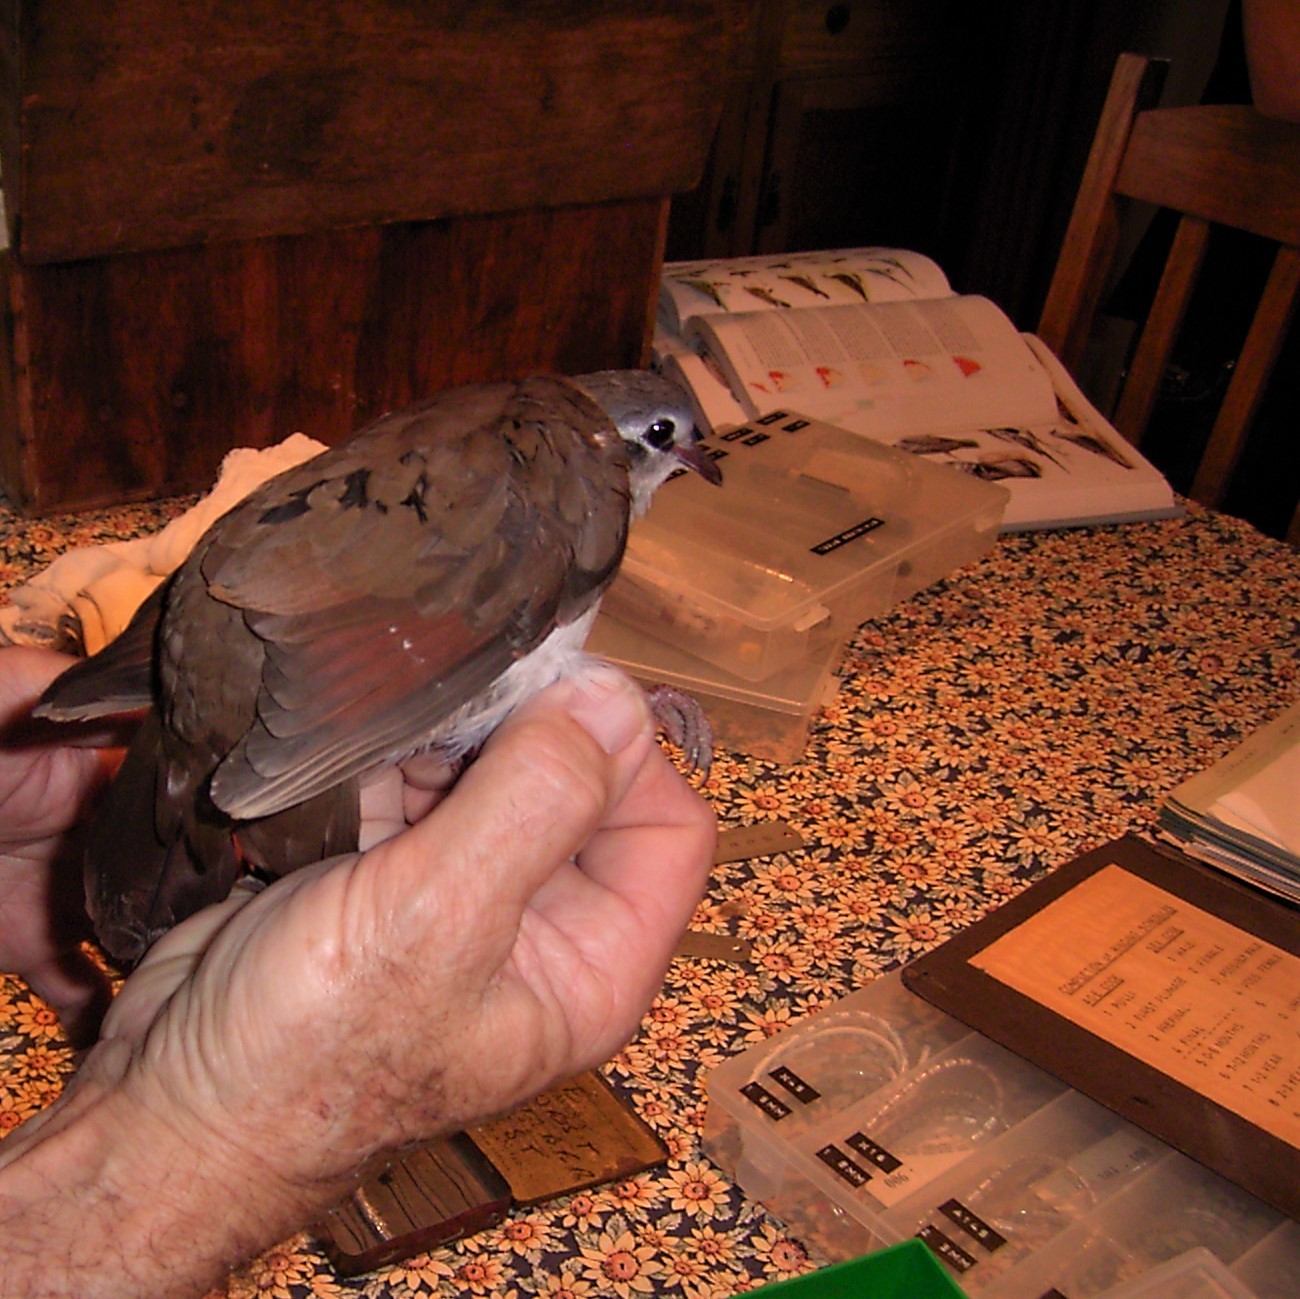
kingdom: Animalia
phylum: Chordata
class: Aves
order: Columbiformes
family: Columbidae
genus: Turtur
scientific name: Turtur tympanistria
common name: Tambourine dove
